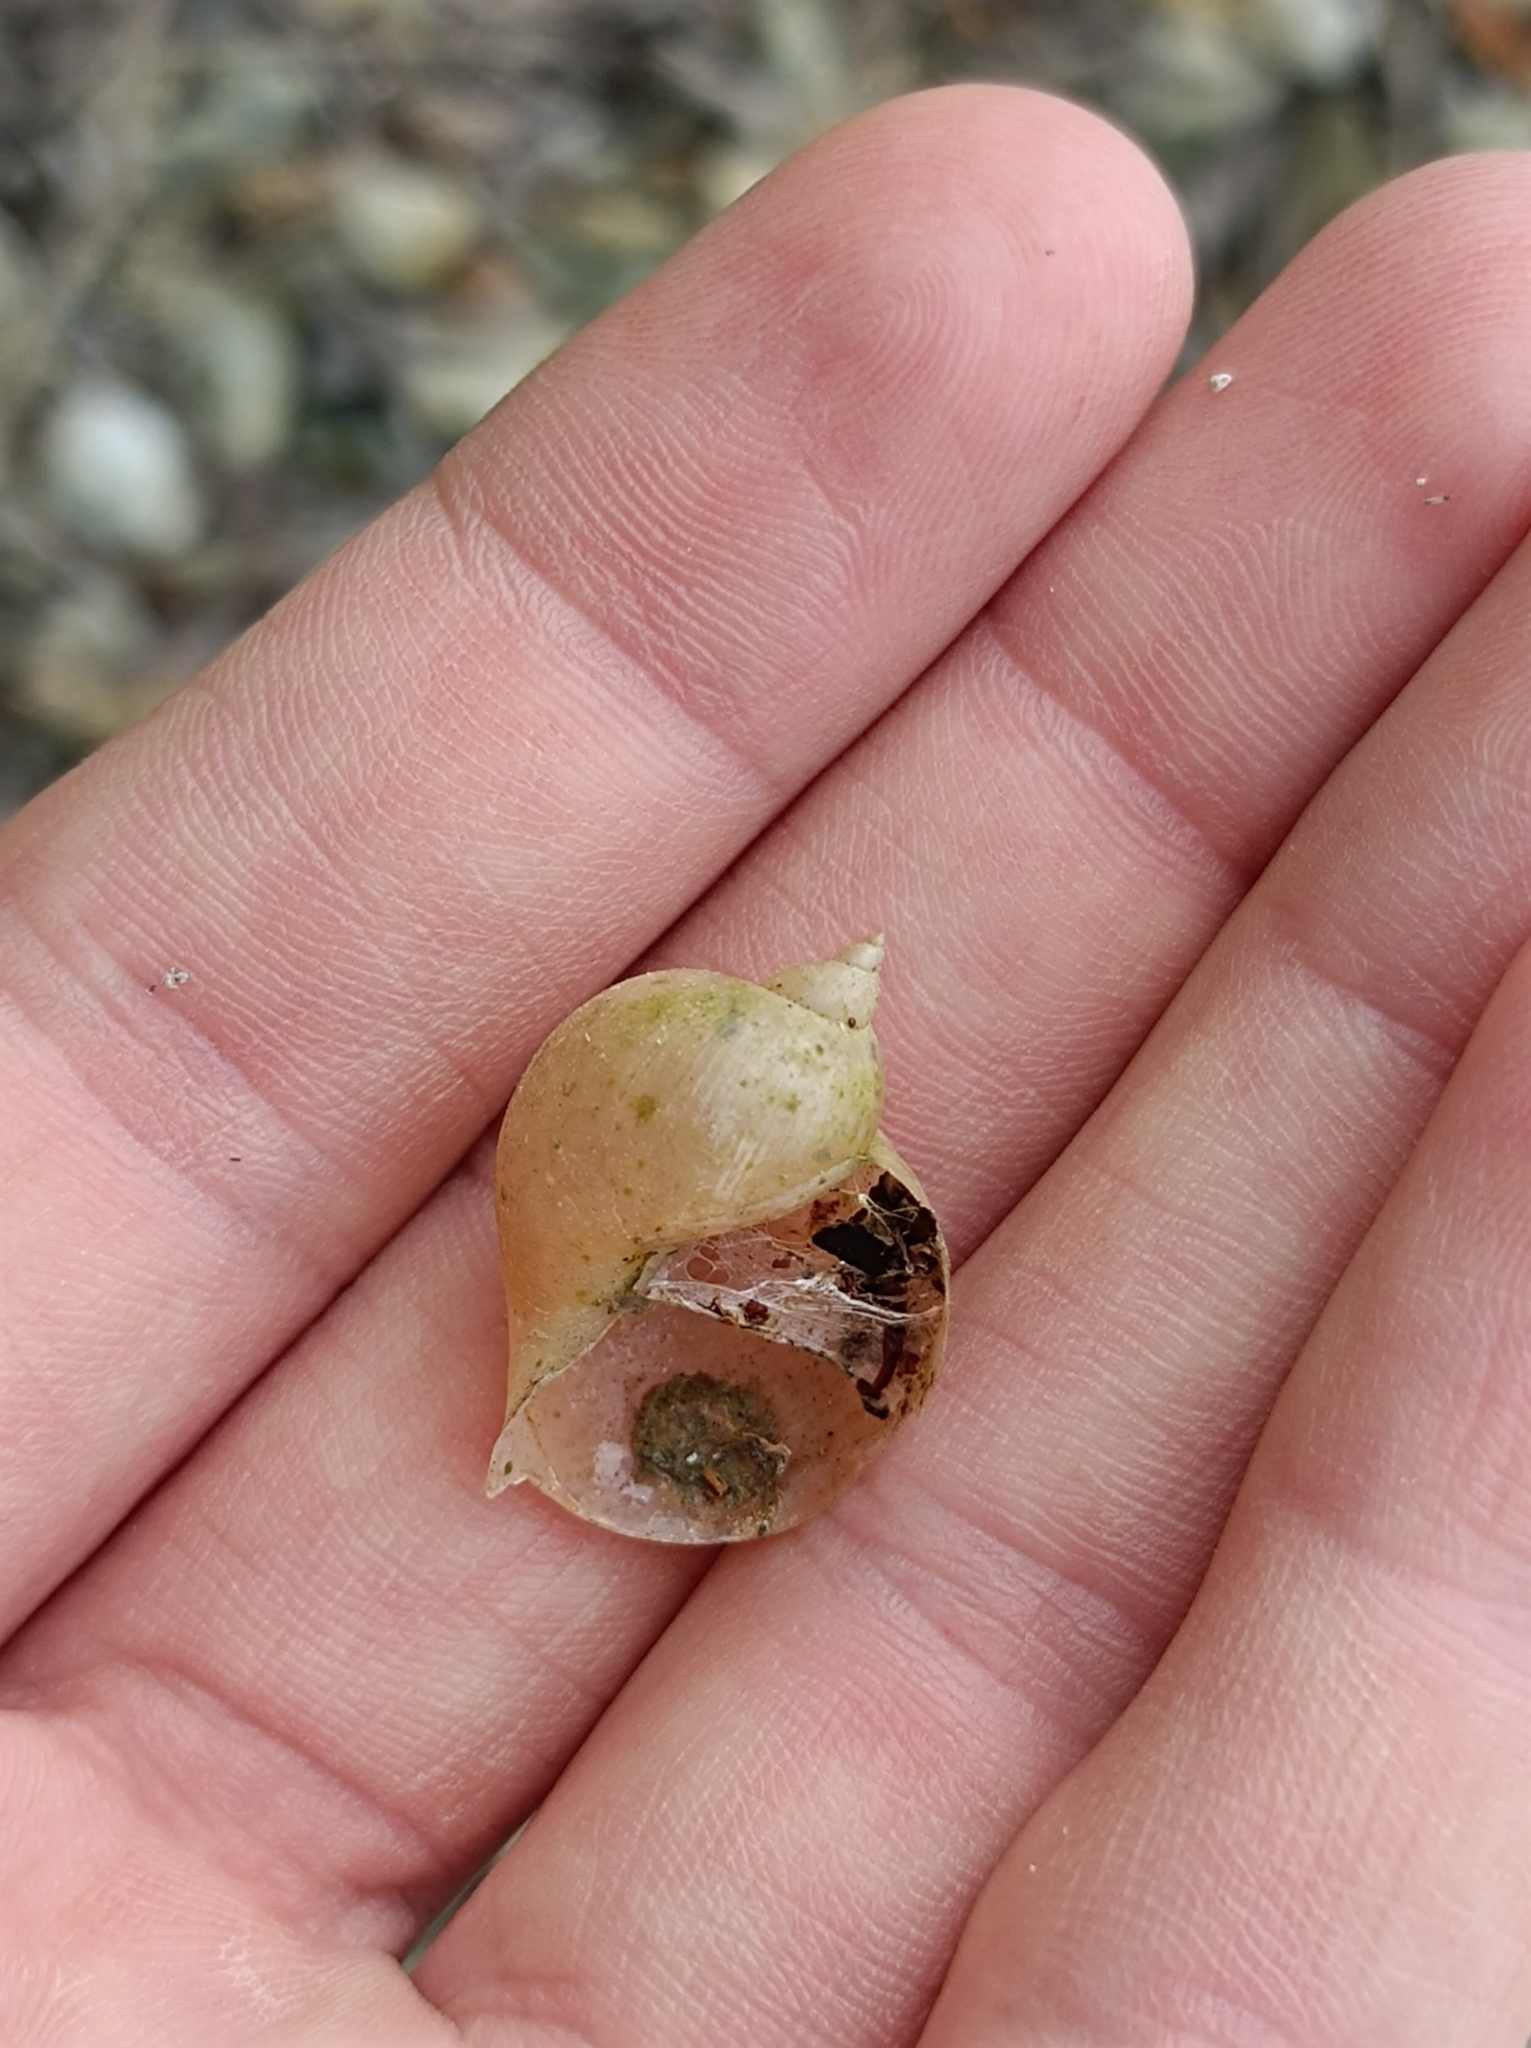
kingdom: Animalia
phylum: Mollusca
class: Gastropoda
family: Lymnaeidae
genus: Radix
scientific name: Radix auricularia
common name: Ear pond snail
